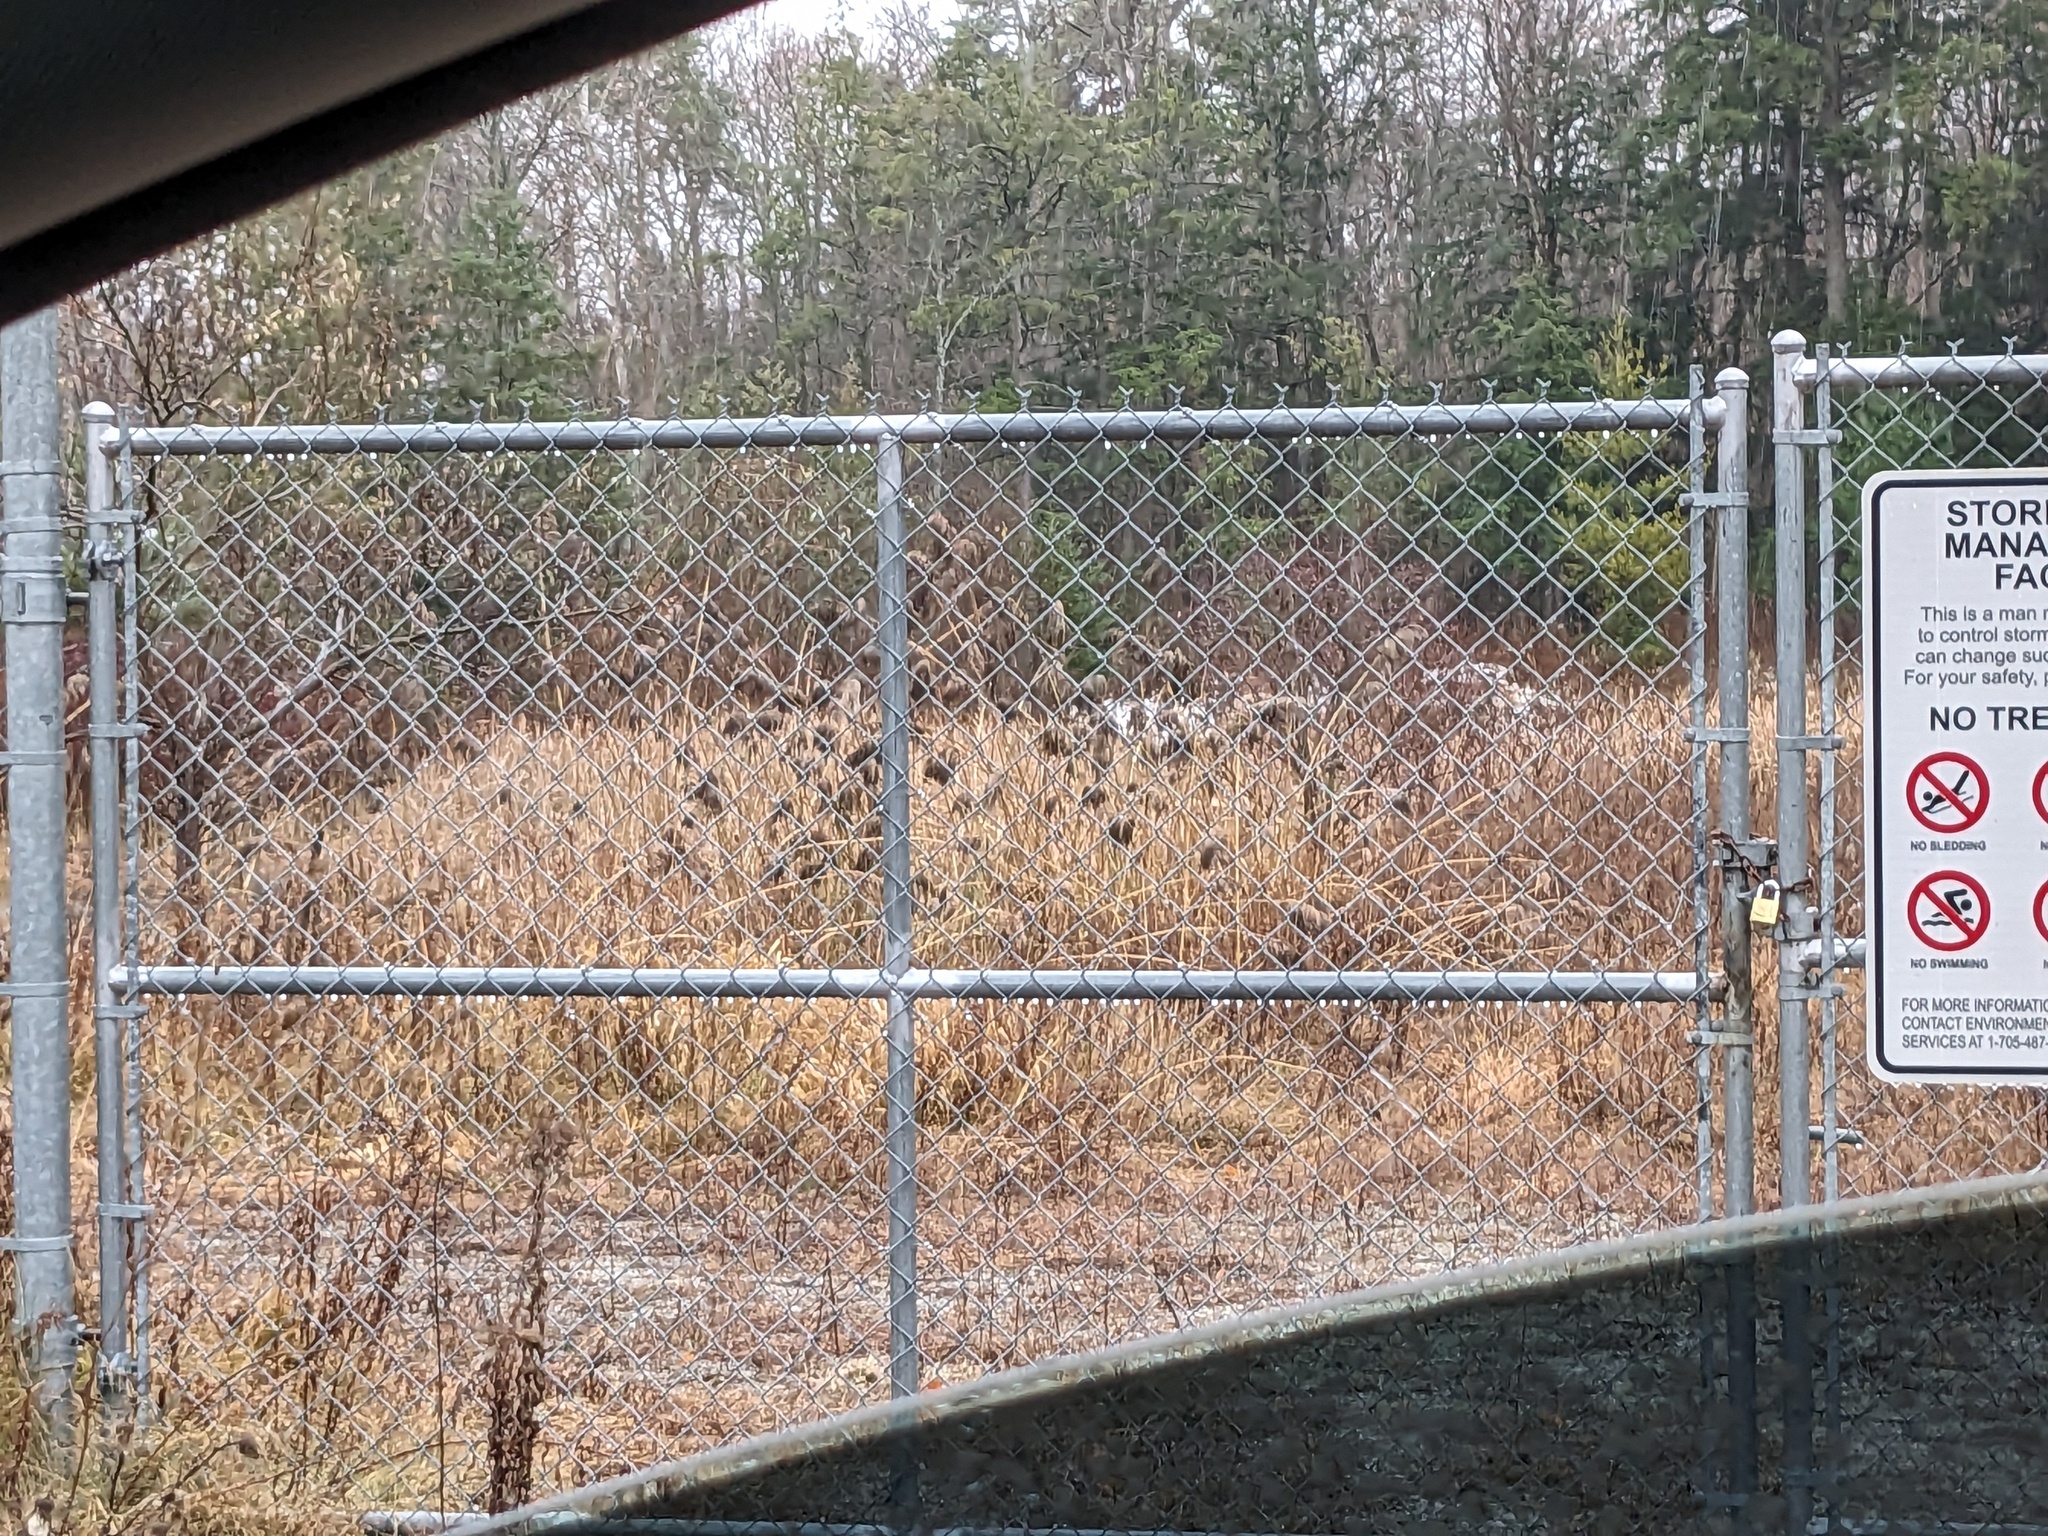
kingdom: Plantae
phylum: Tracheophyta
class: Liliopsida
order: Poales
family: Poaceae
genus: Phragmites
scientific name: Phragmites australis
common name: Common reed
